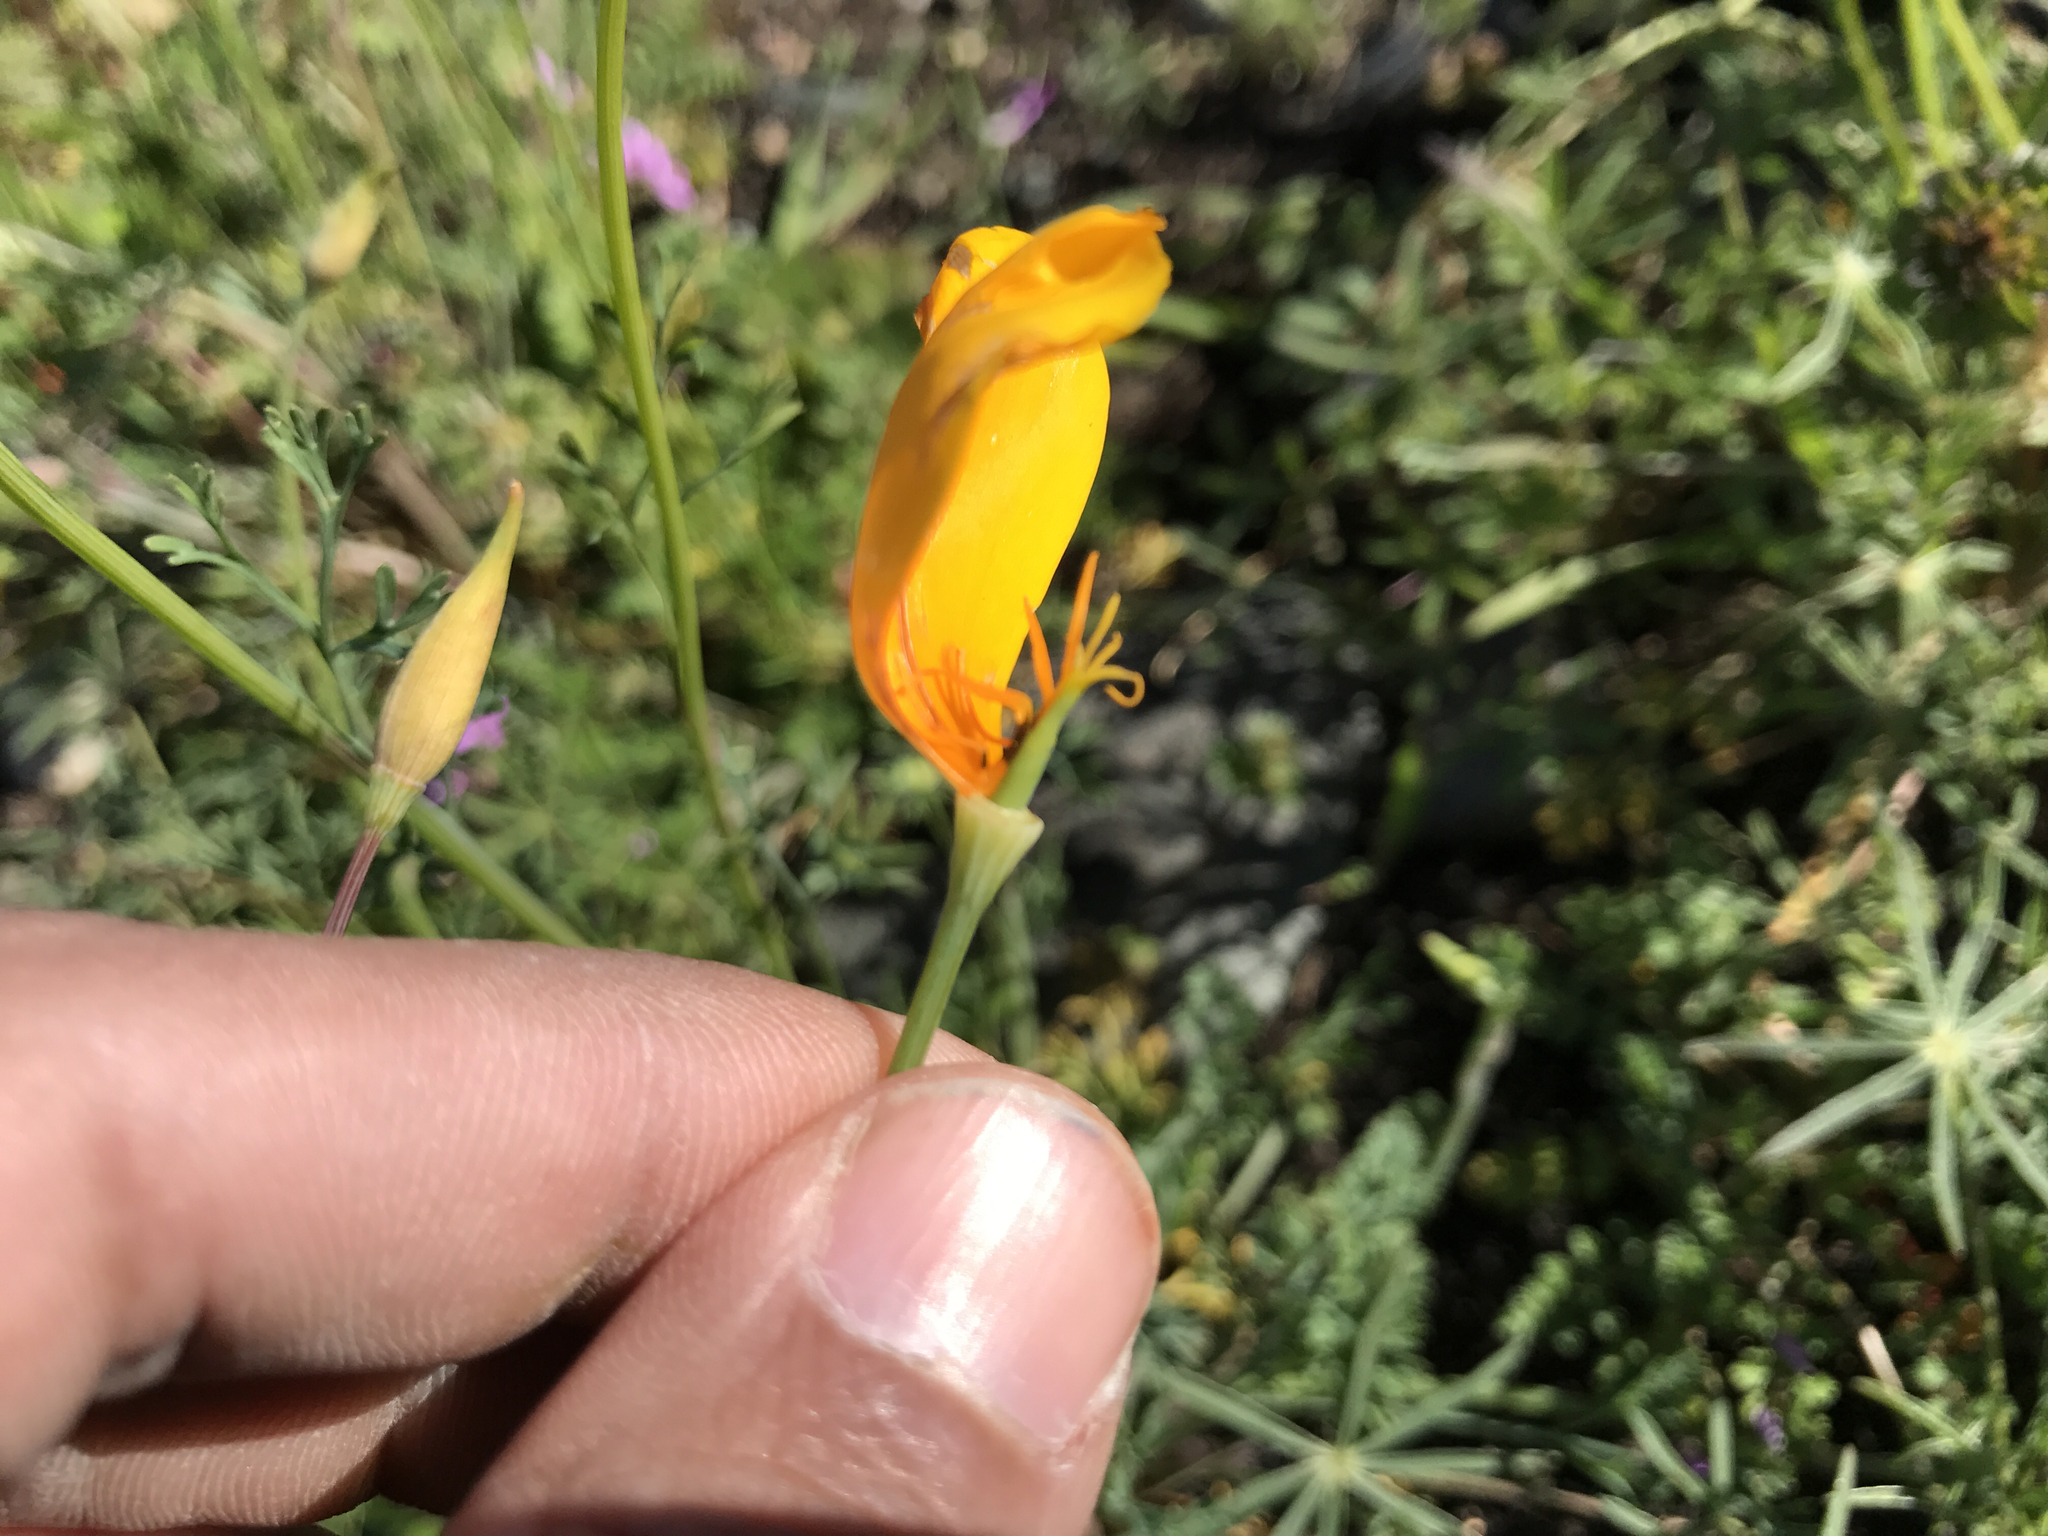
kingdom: Plantae
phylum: Tracheophyta
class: Magnoliopsida
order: Ranunculales
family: Papaveraceae
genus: Eschscholzia
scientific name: Eschscholzia caespitosa
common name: Tufted california-poppy
